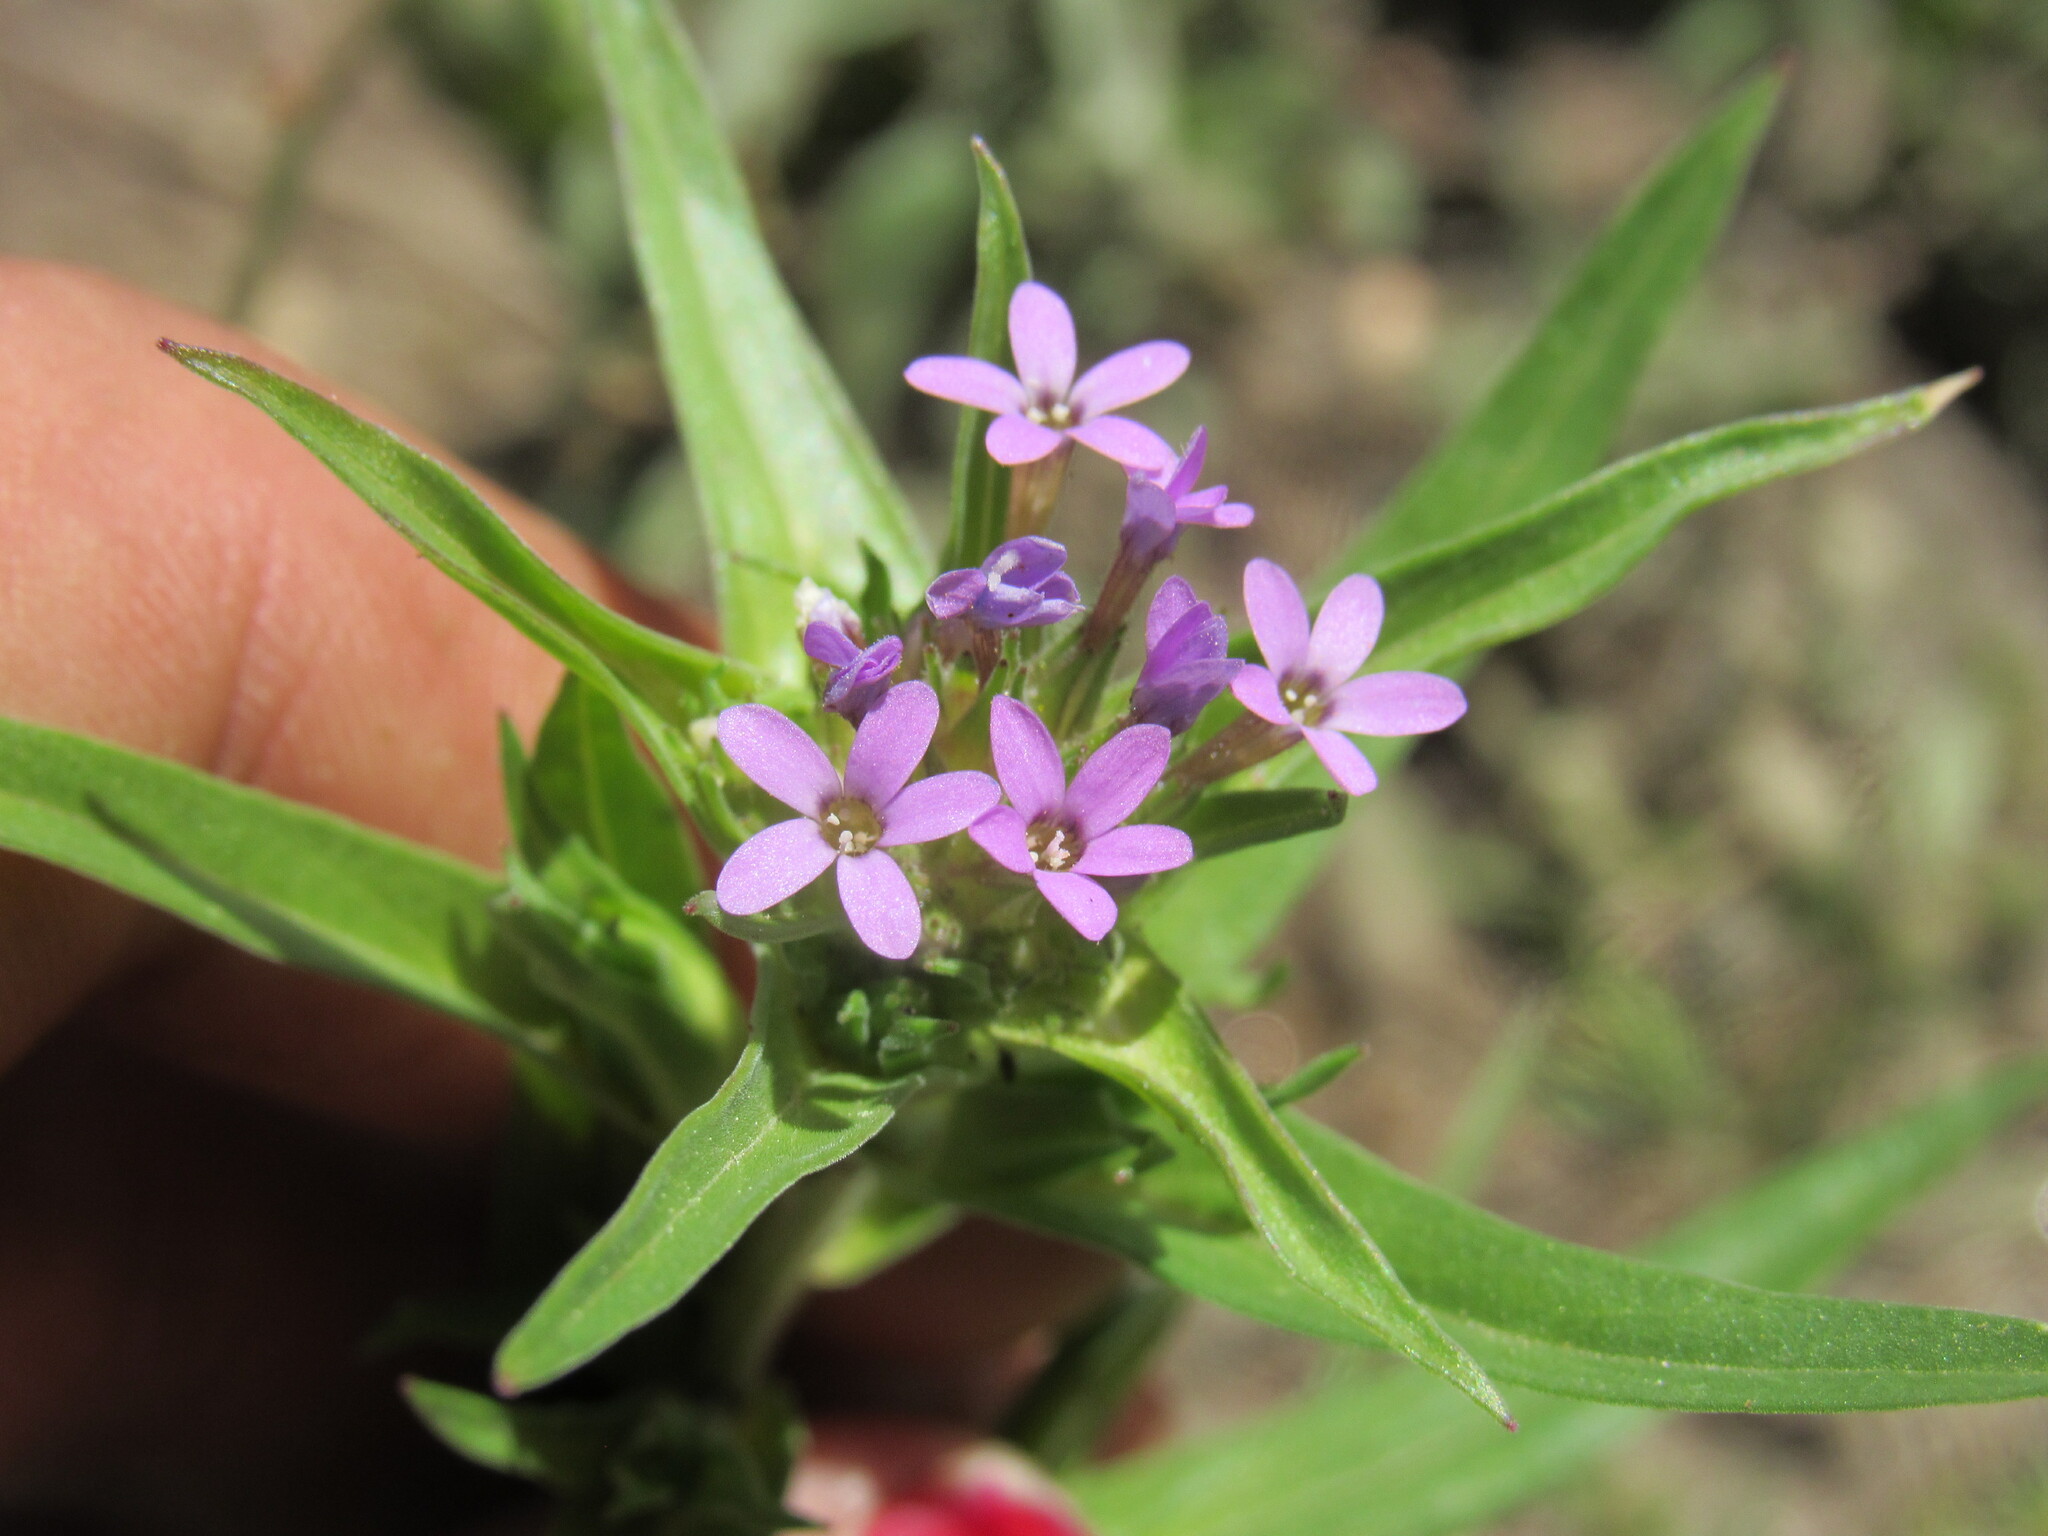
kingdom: Plantae
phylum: Tracheophyta
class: Magnoliopsida
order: Ericales
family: Polemoniaceae
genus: Collomia
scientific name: Collomia linearis
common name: Tiny trumpet
